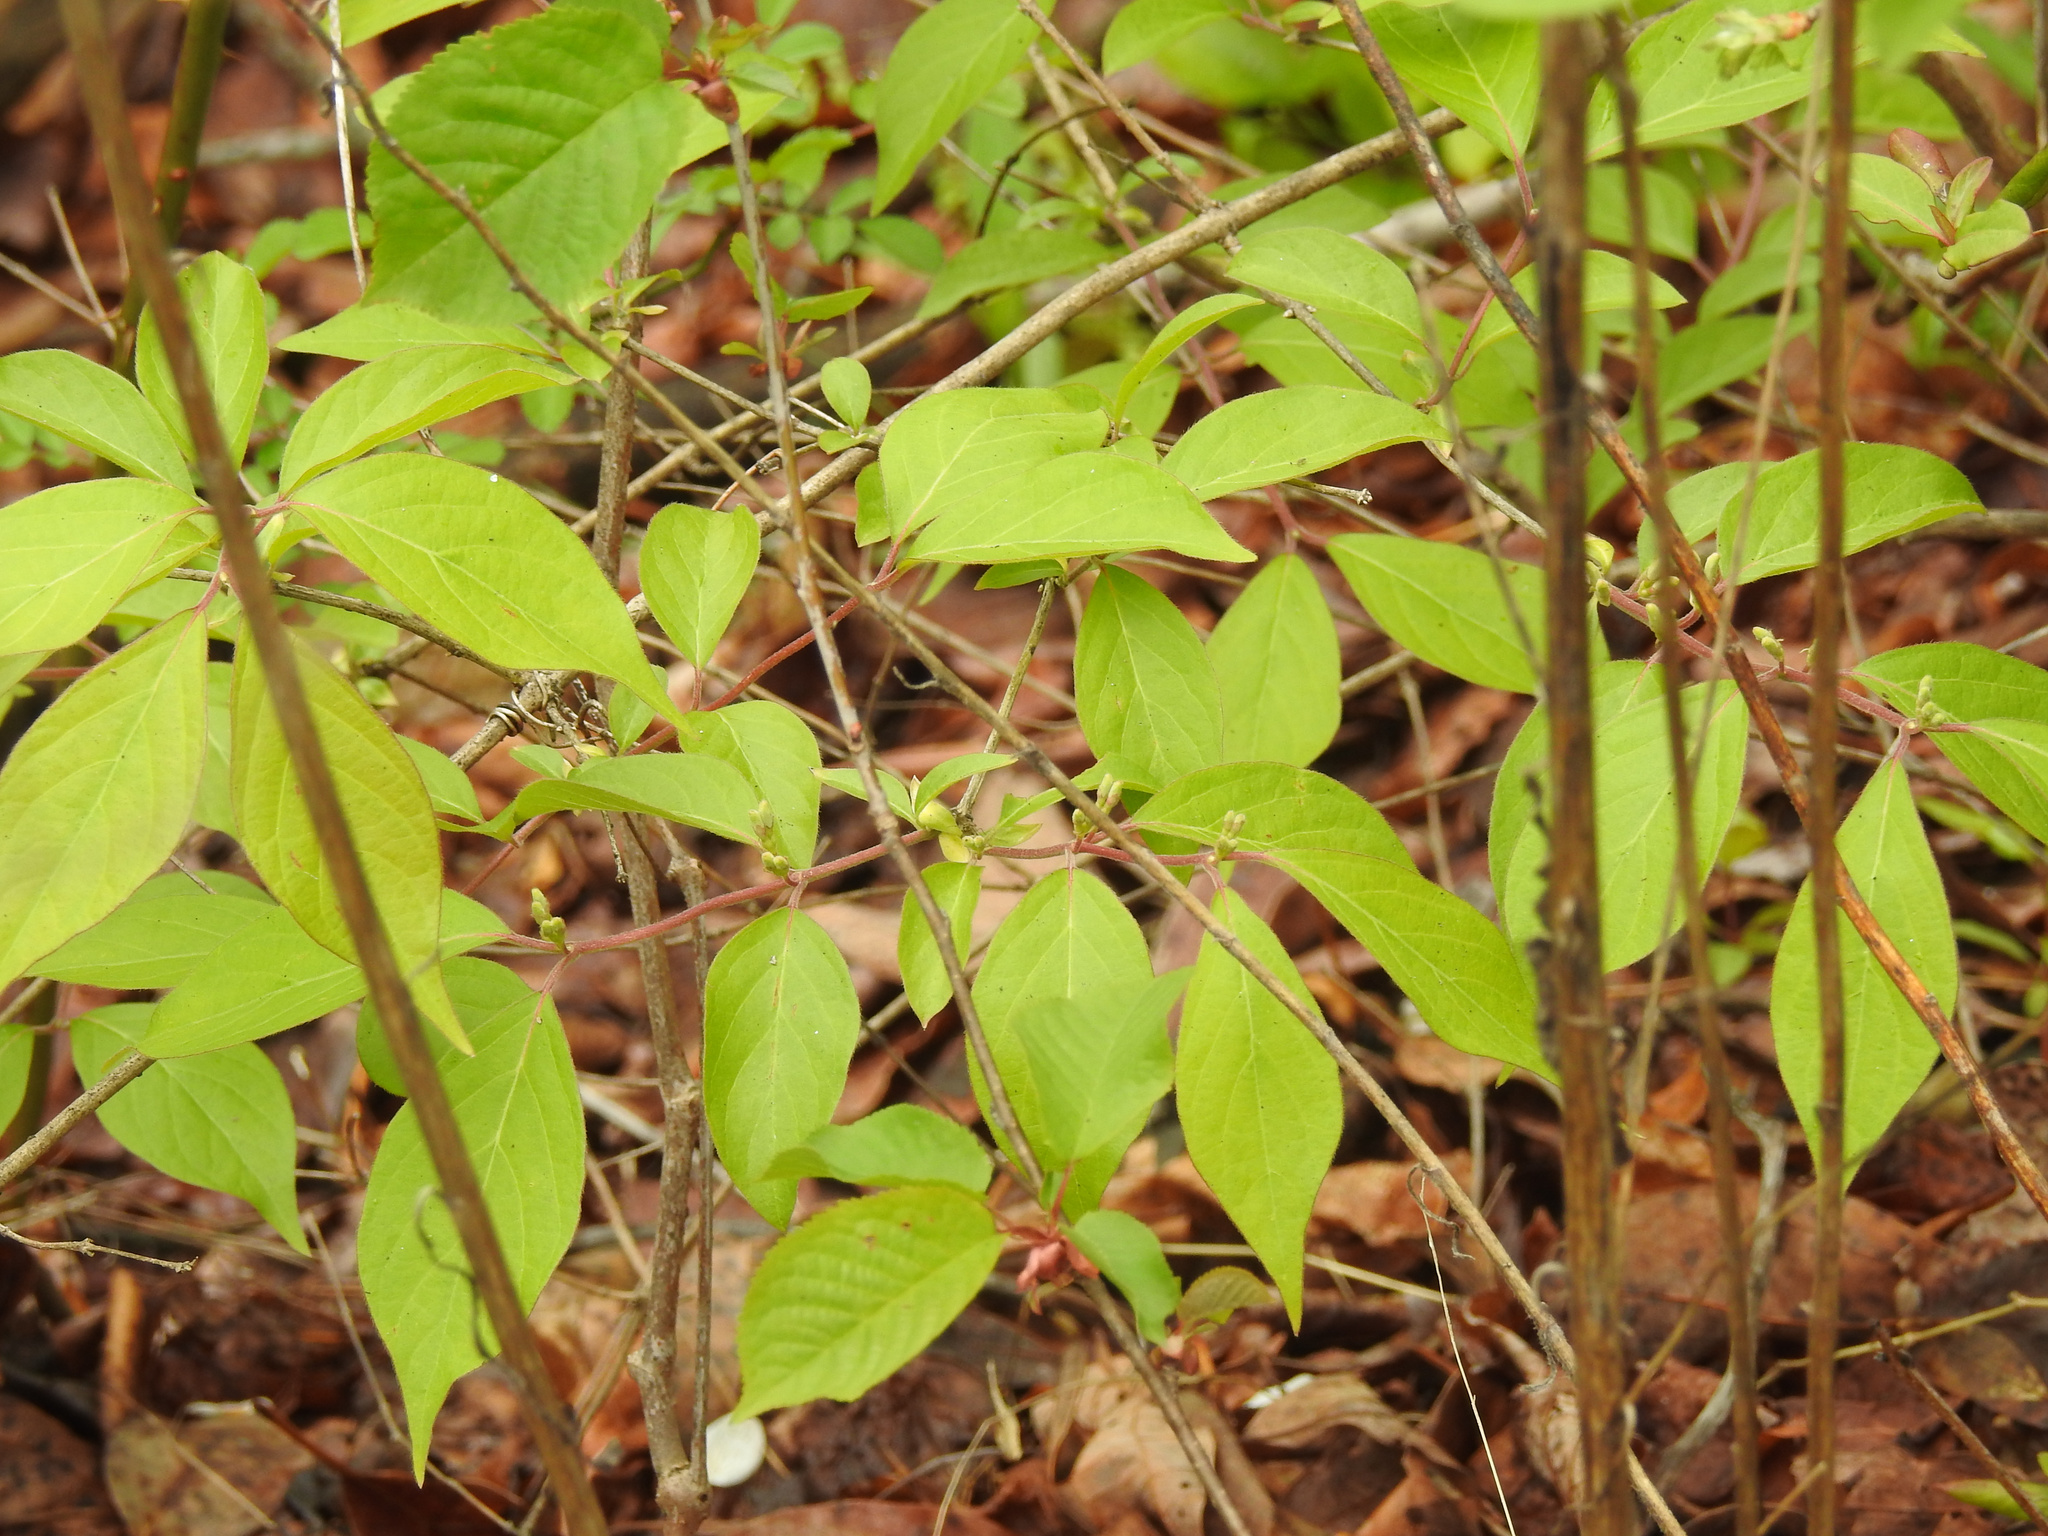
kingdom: Plantae
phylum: Tracheophyta
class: Magnoliopsida
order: Dipsacales
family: Caprifoliaceae
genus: Lonicera
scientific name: Lonicera maackii
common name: Amur honeysuckle
